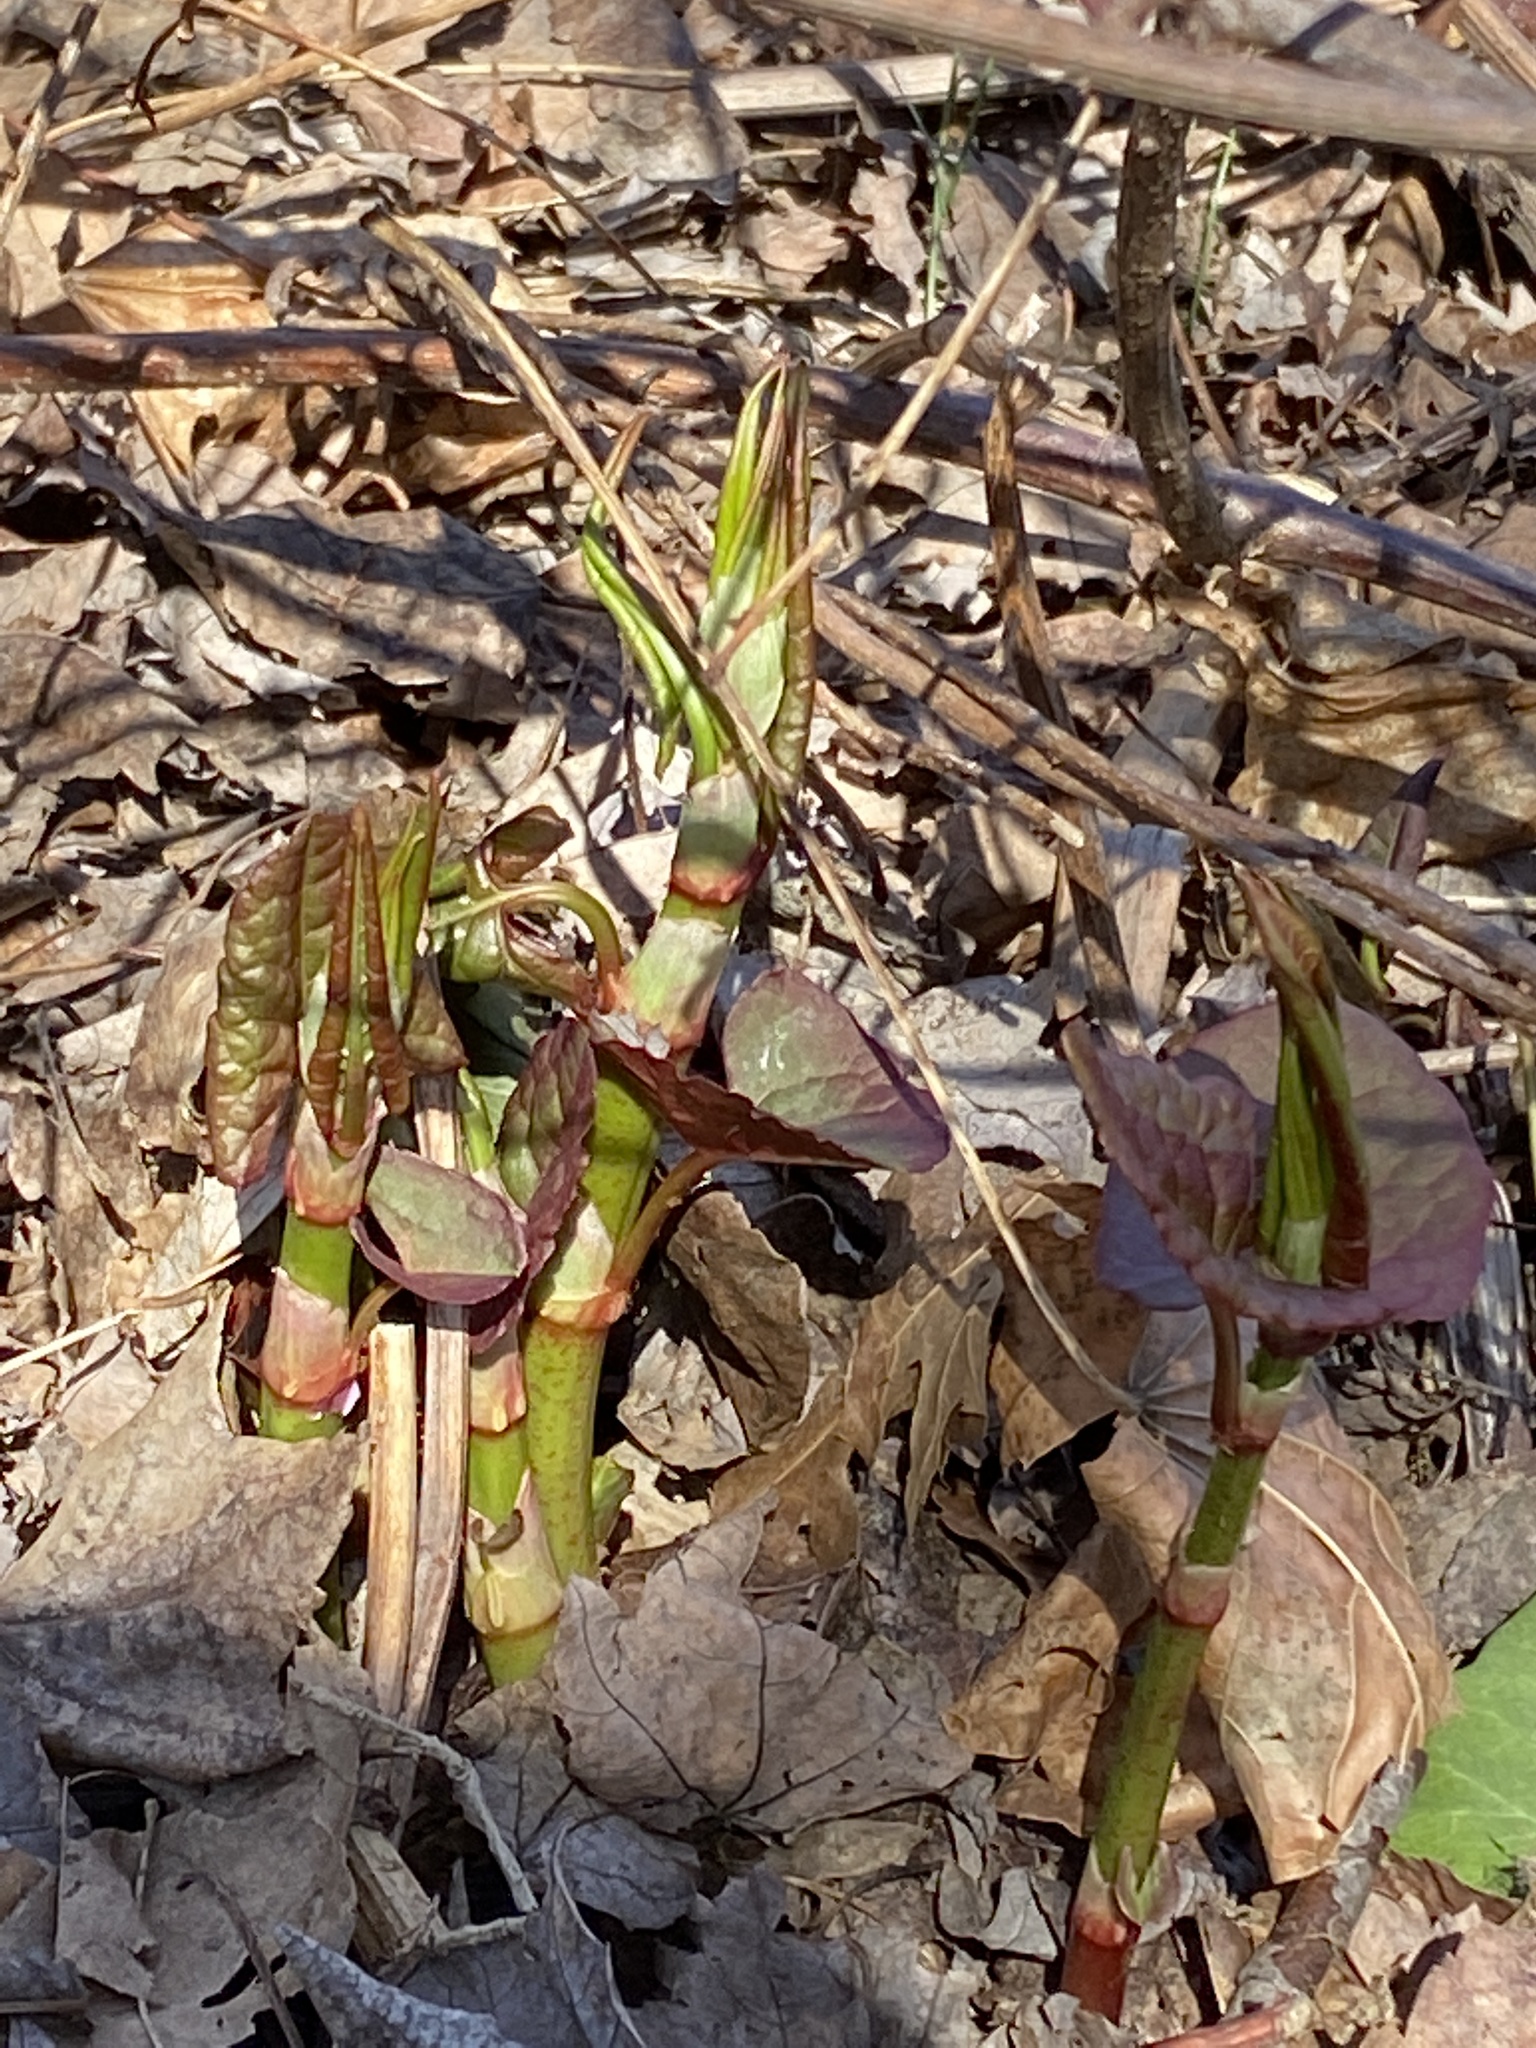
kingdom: Plantae
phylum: Tracheophyta
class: Magnoliopsida
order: Caryophyllales
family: Polygonaceae
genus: Reynoutria
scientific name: Reynoutria japonica
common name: Japanese knotweed
